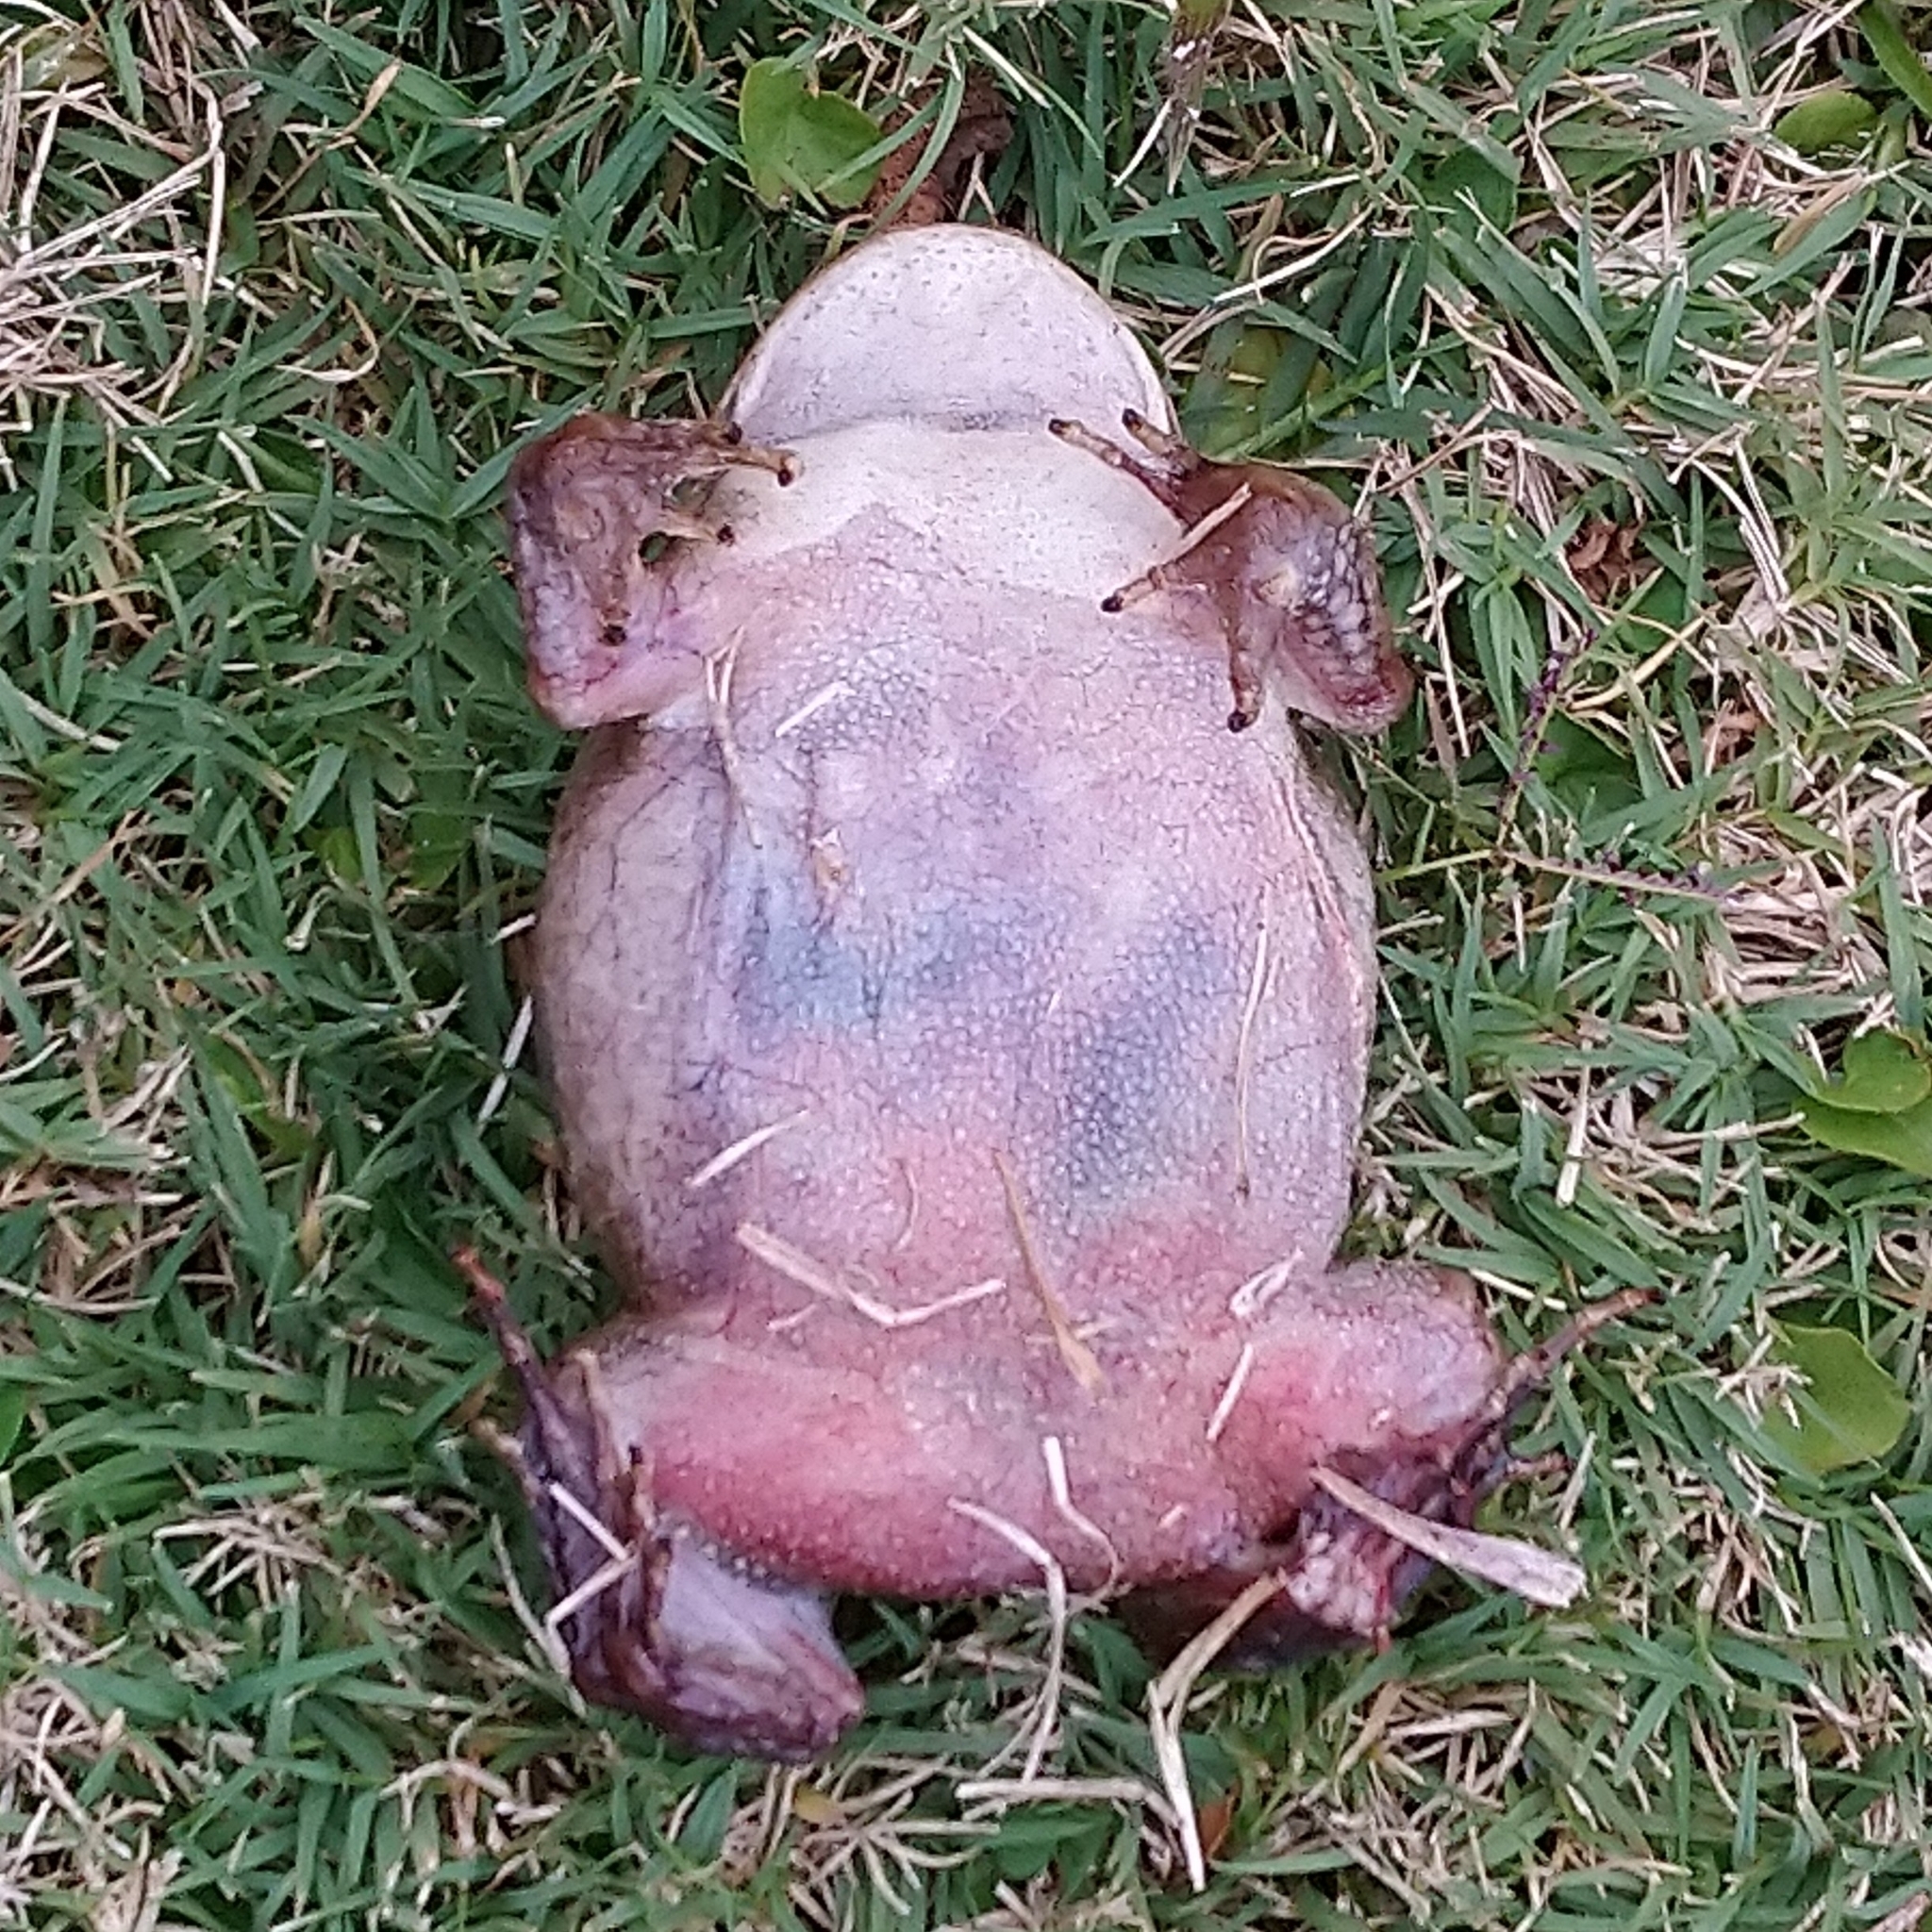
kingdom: Animalia
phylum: Chordata
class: Amphibia
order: Anura
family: Bufonidae
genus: Sclerophrys
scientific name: Sclerophrys gutturalis
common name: African common toad
